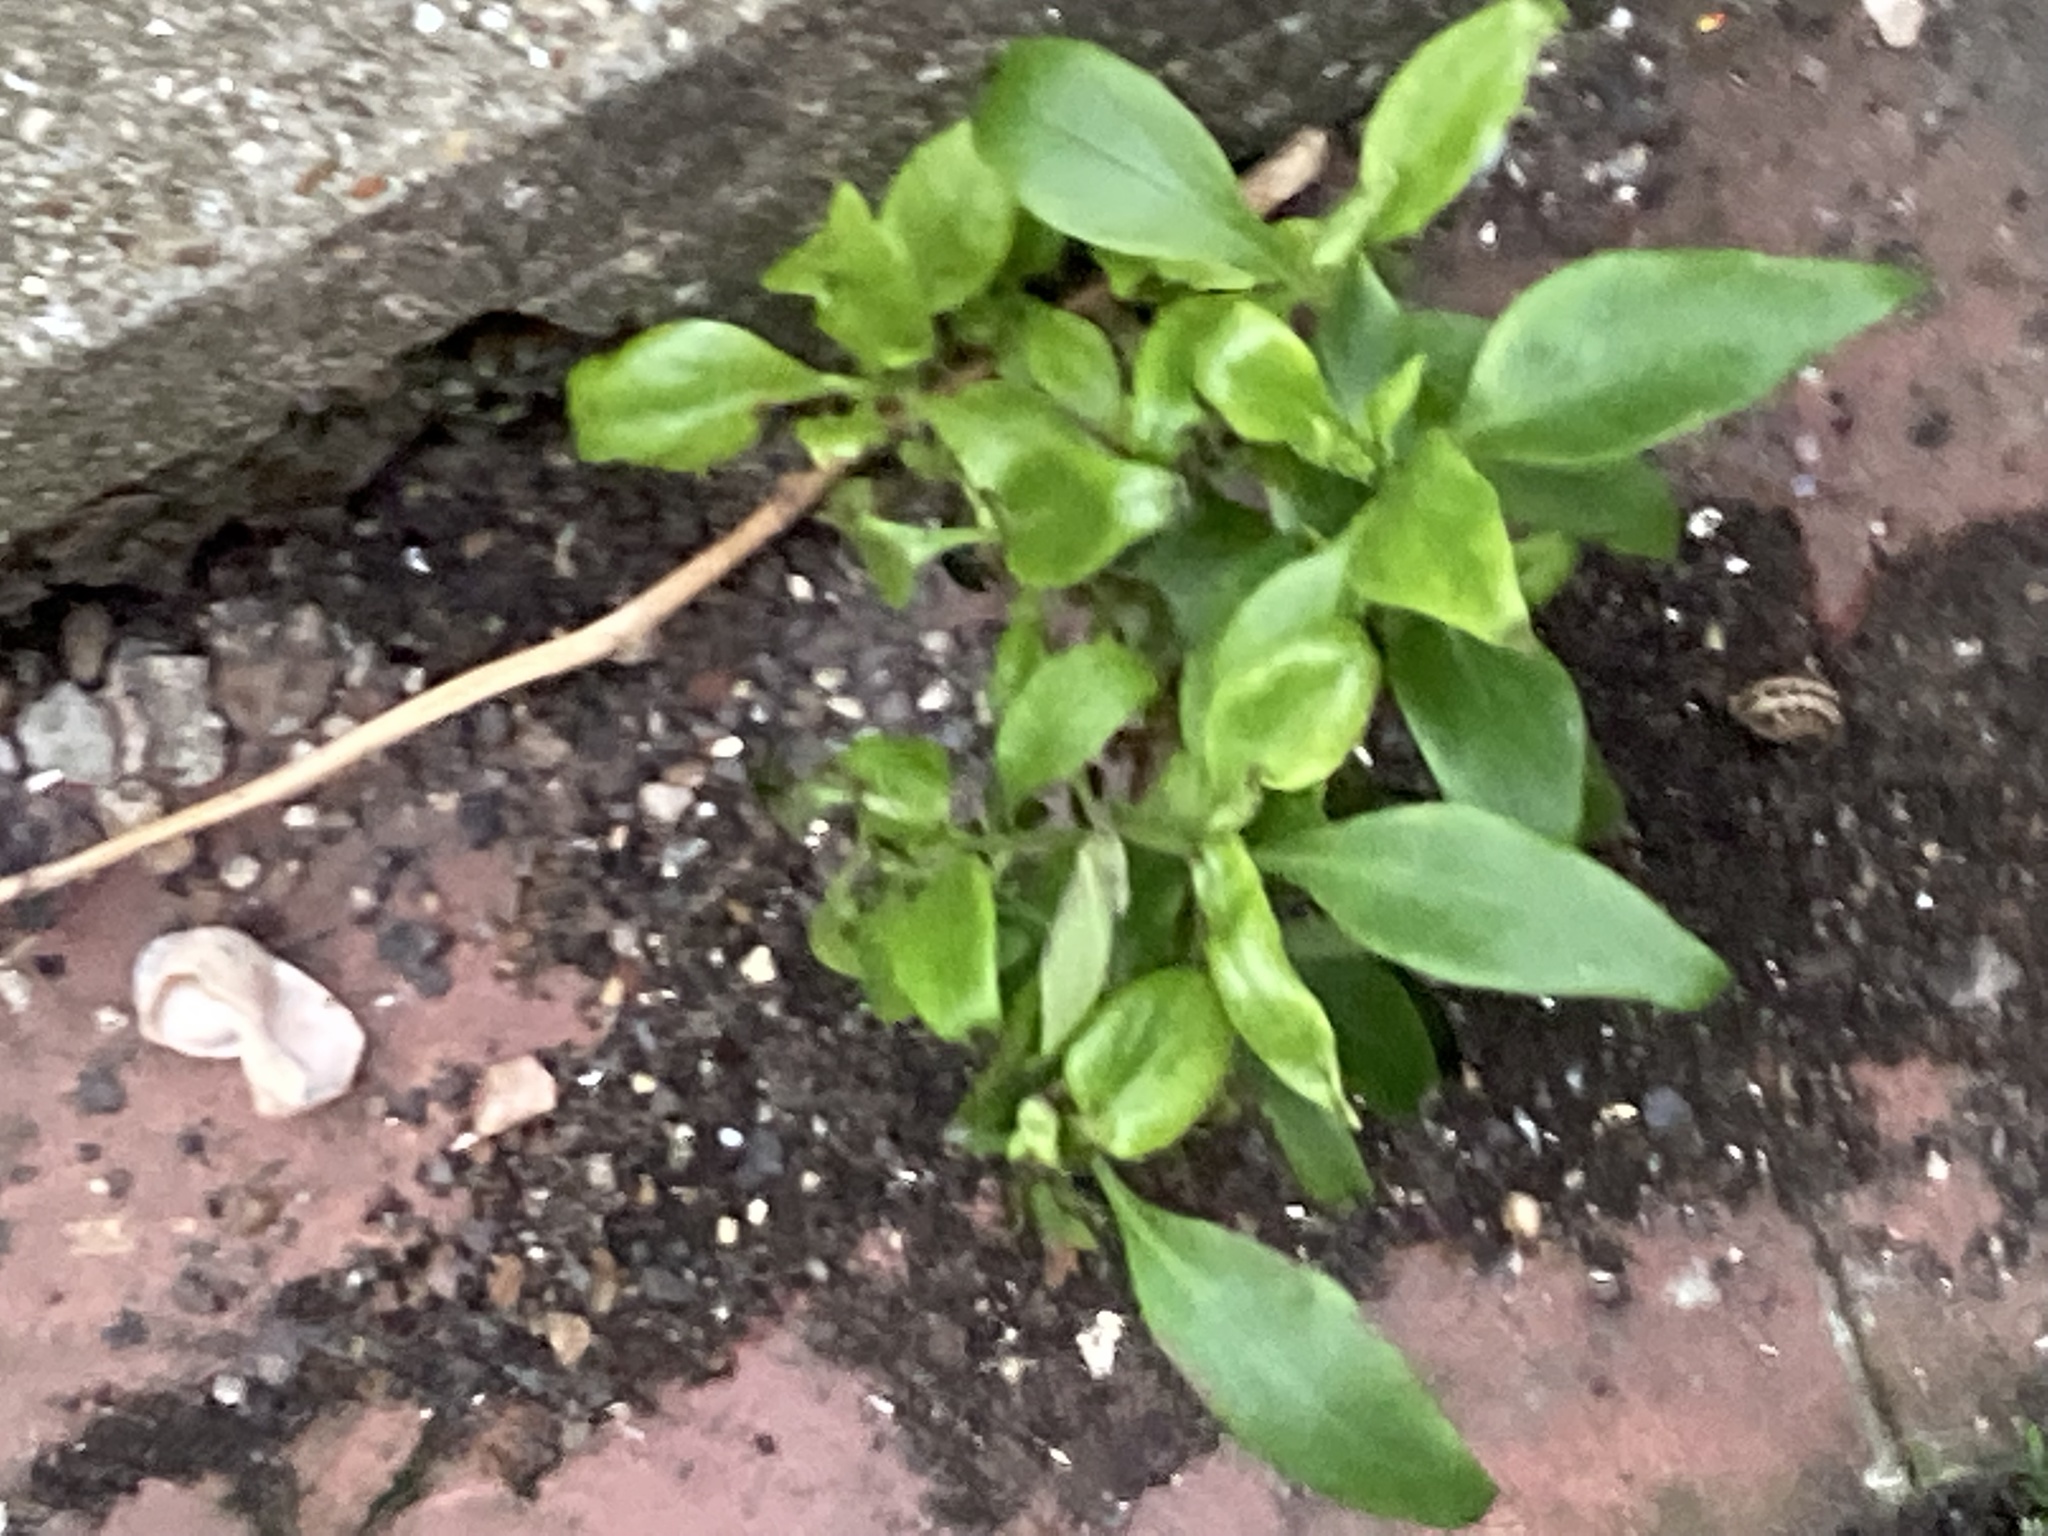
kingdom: Plantae
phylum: Tracheophyta
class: Magnoliopsida
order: Dipsacales
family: Caprifoliaceae
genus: Centranthus
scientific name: Centranthus ruber
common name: Red valerian
